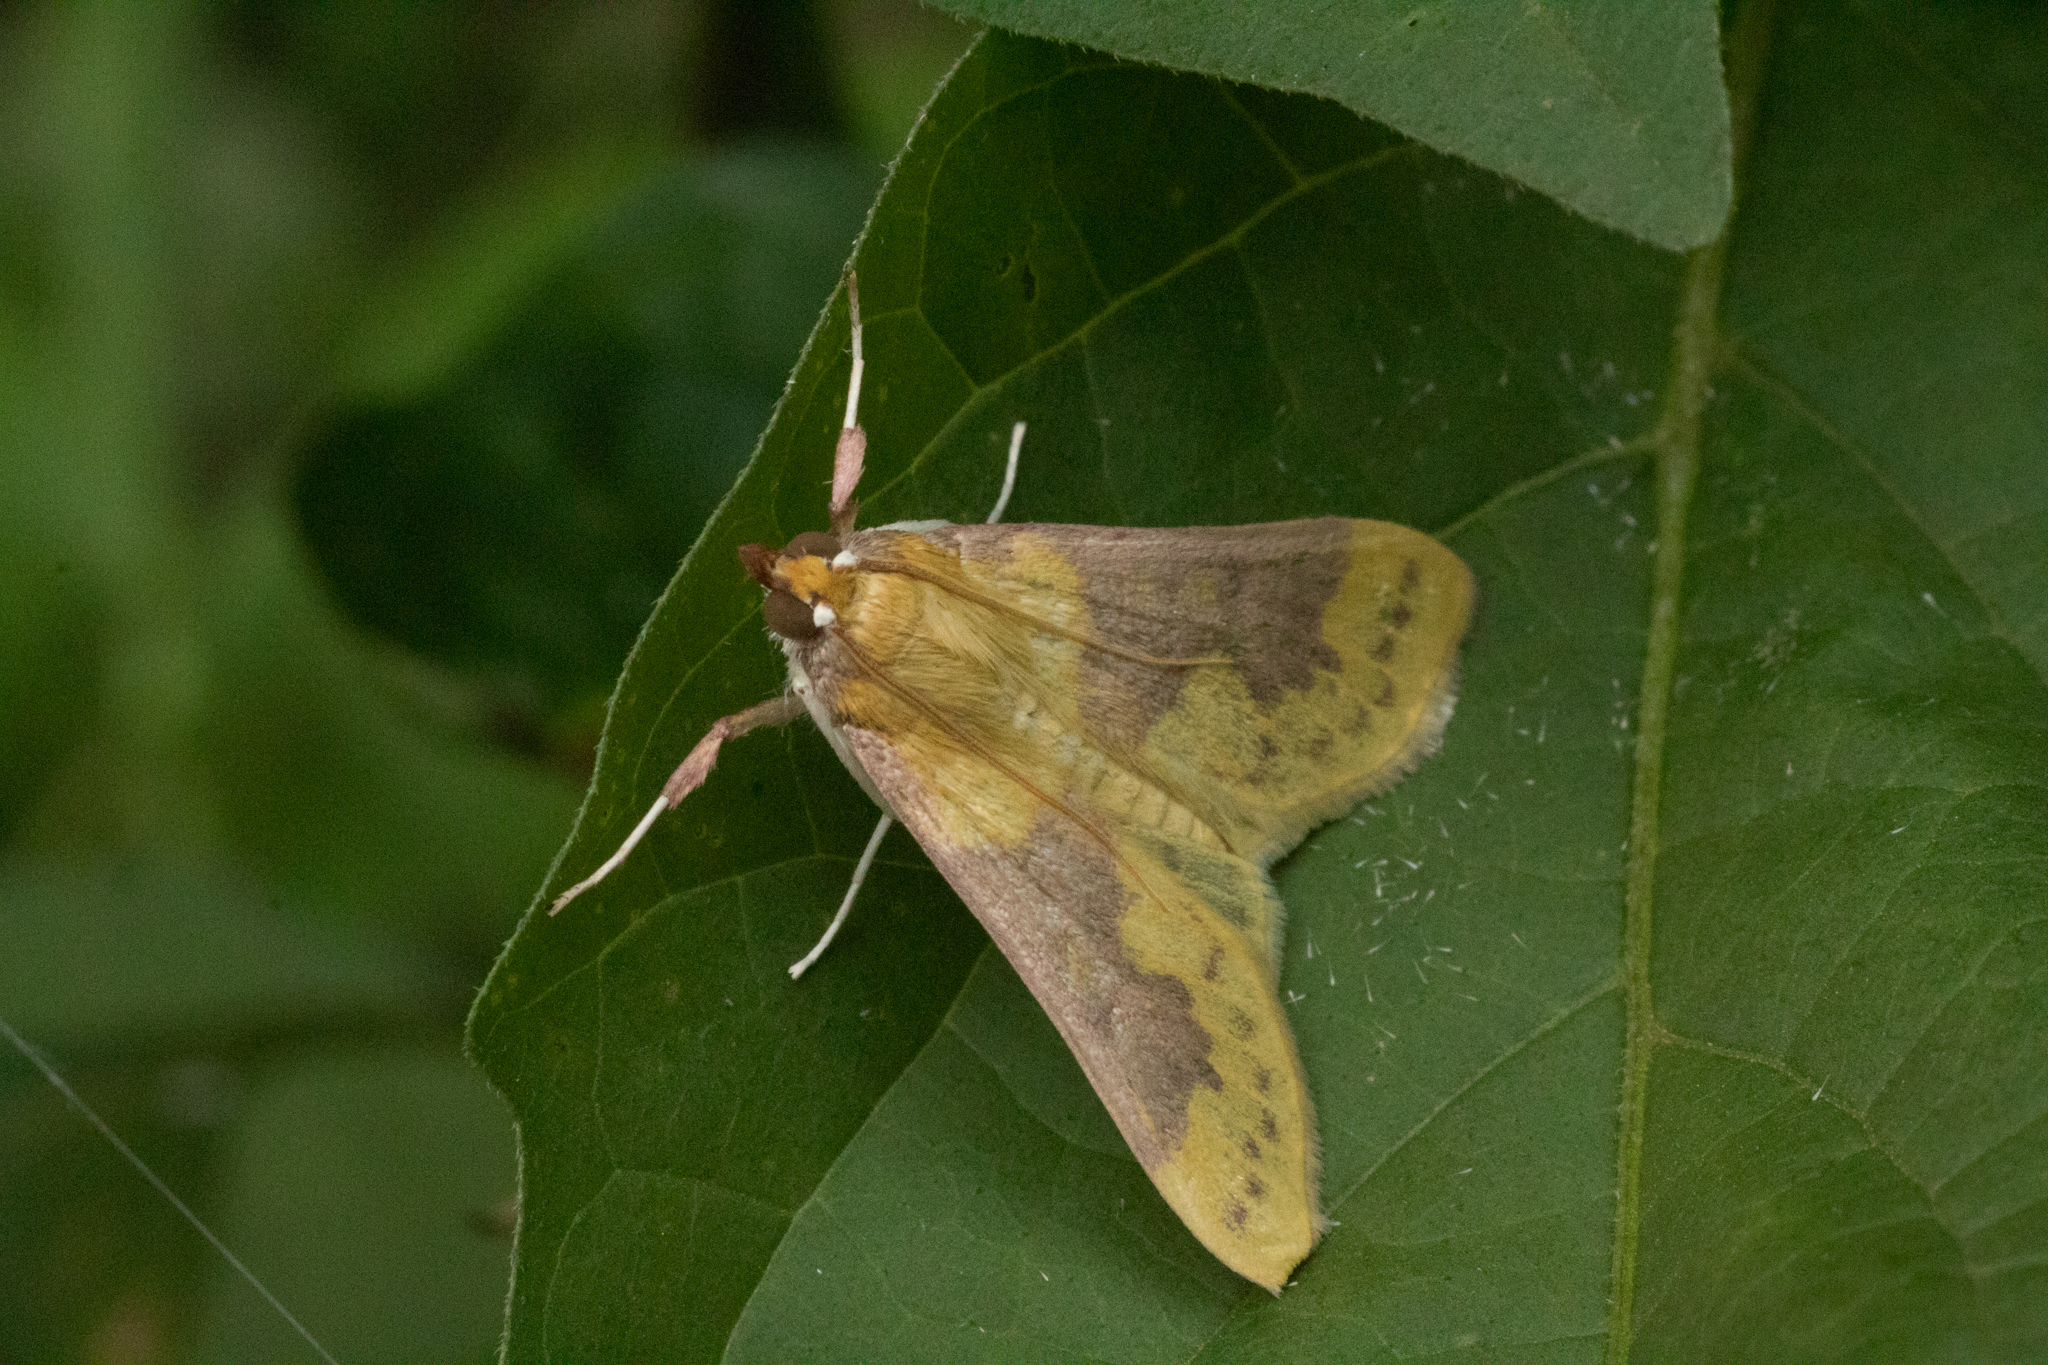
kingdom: Animalia
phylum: Arthropoda
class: Insecta
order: Lepidoptera
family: Crambidae
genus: Polygrammodes
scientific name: Polygrammodes ponderalis
